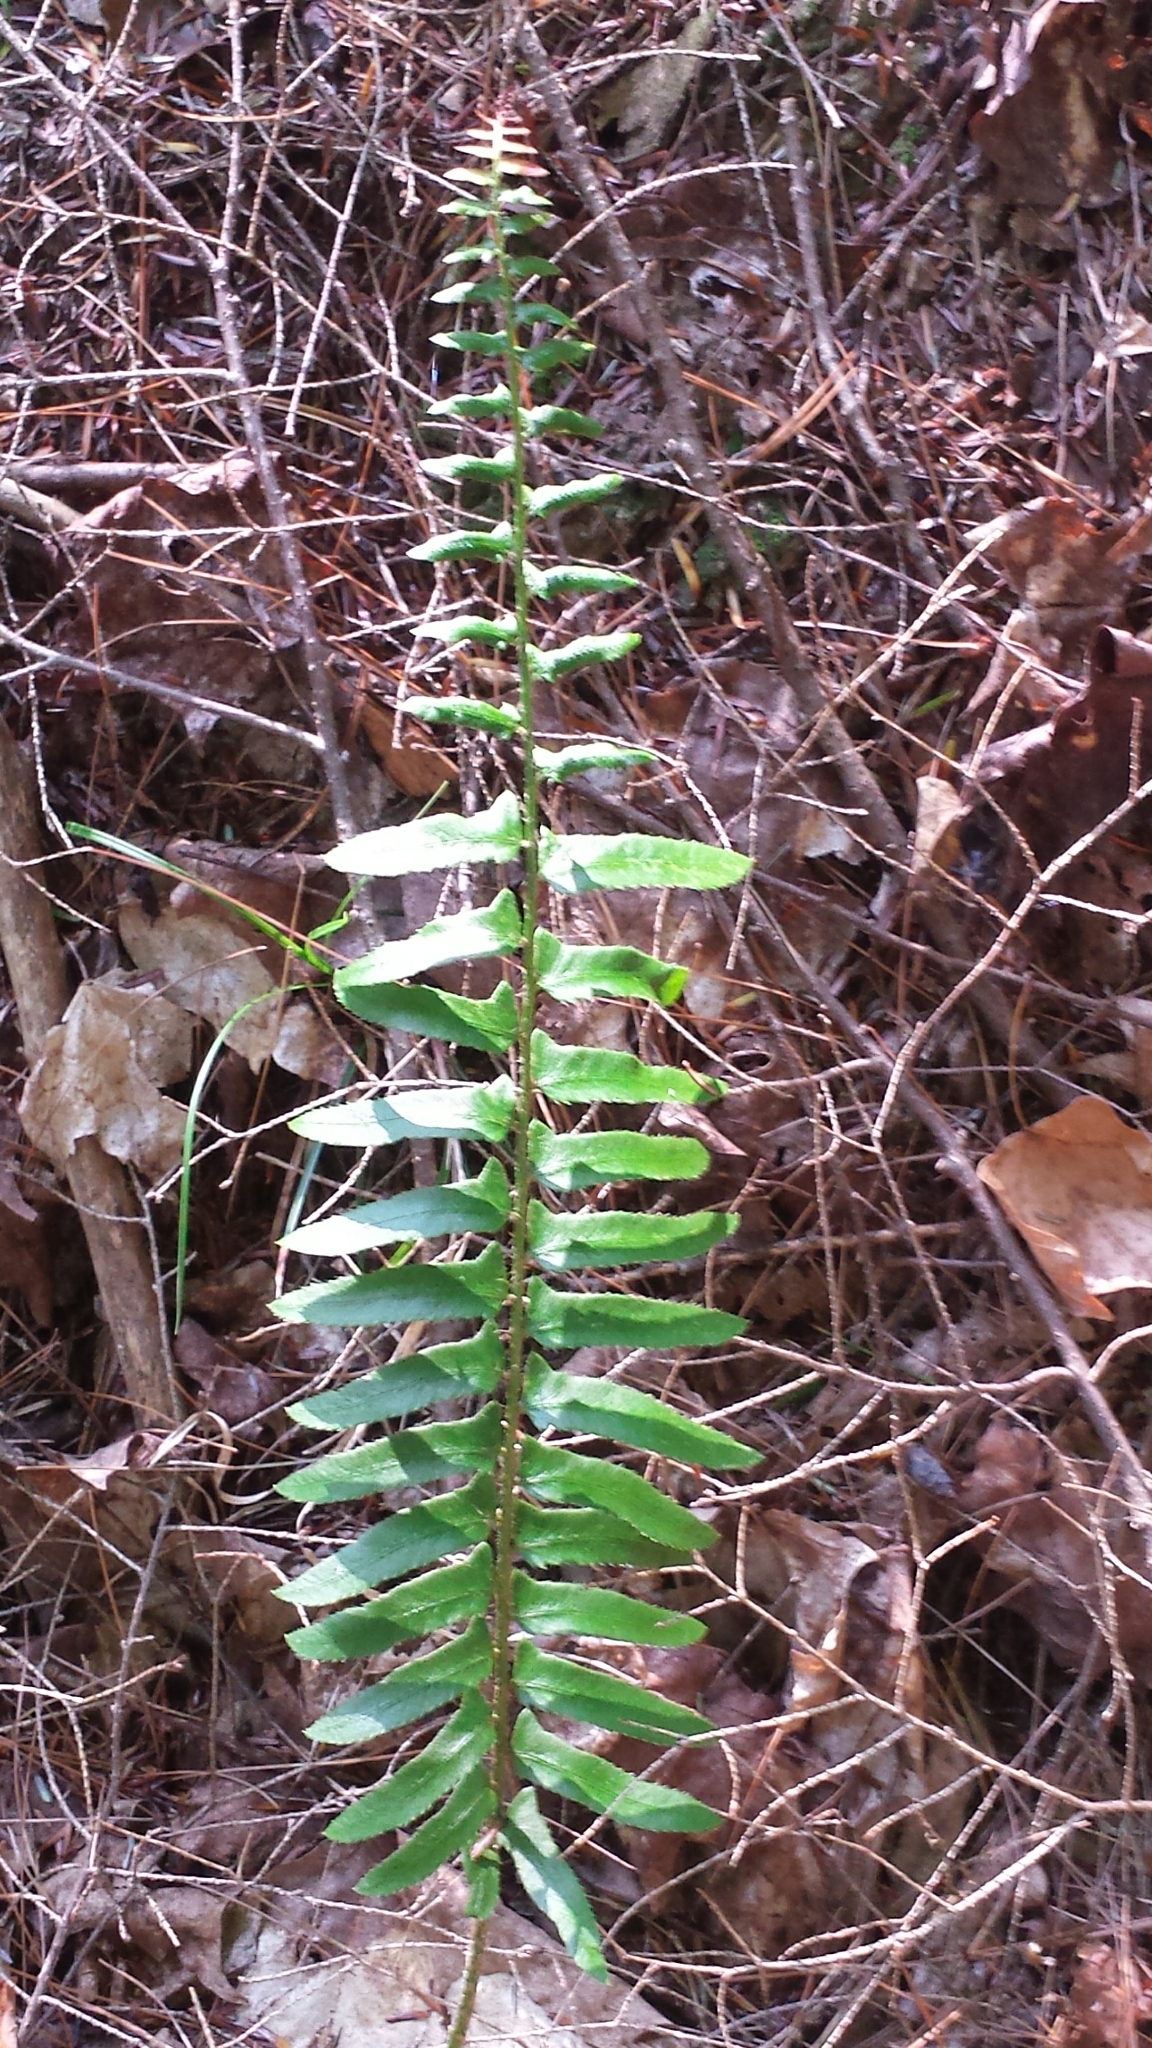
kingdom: Plantae
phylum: Tracheophyta
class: Polypodiopsida
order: Polypodiales
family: Dryopteridaceae
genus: Polystichum
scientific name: Polystichum acrostichoides
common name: Christmas fern
